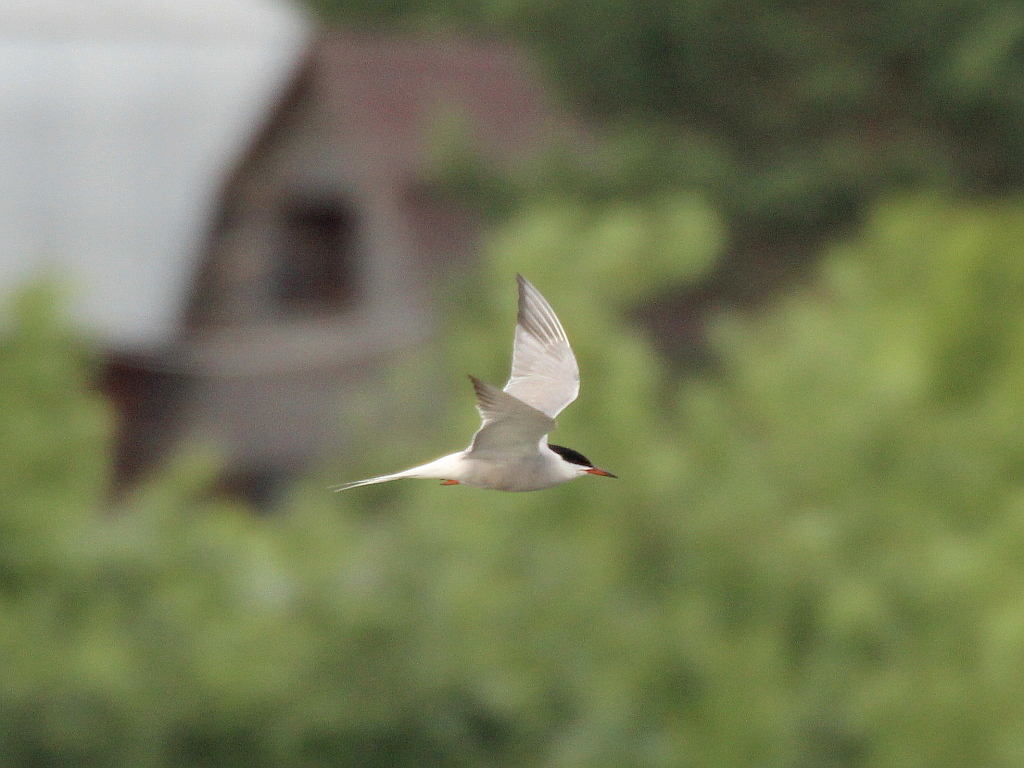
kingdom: Animalia
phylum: Chordata
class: Aves
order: Charadriiformes
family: Laridae
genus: Sterna
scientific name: Sterna hirundo
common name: Common tern
